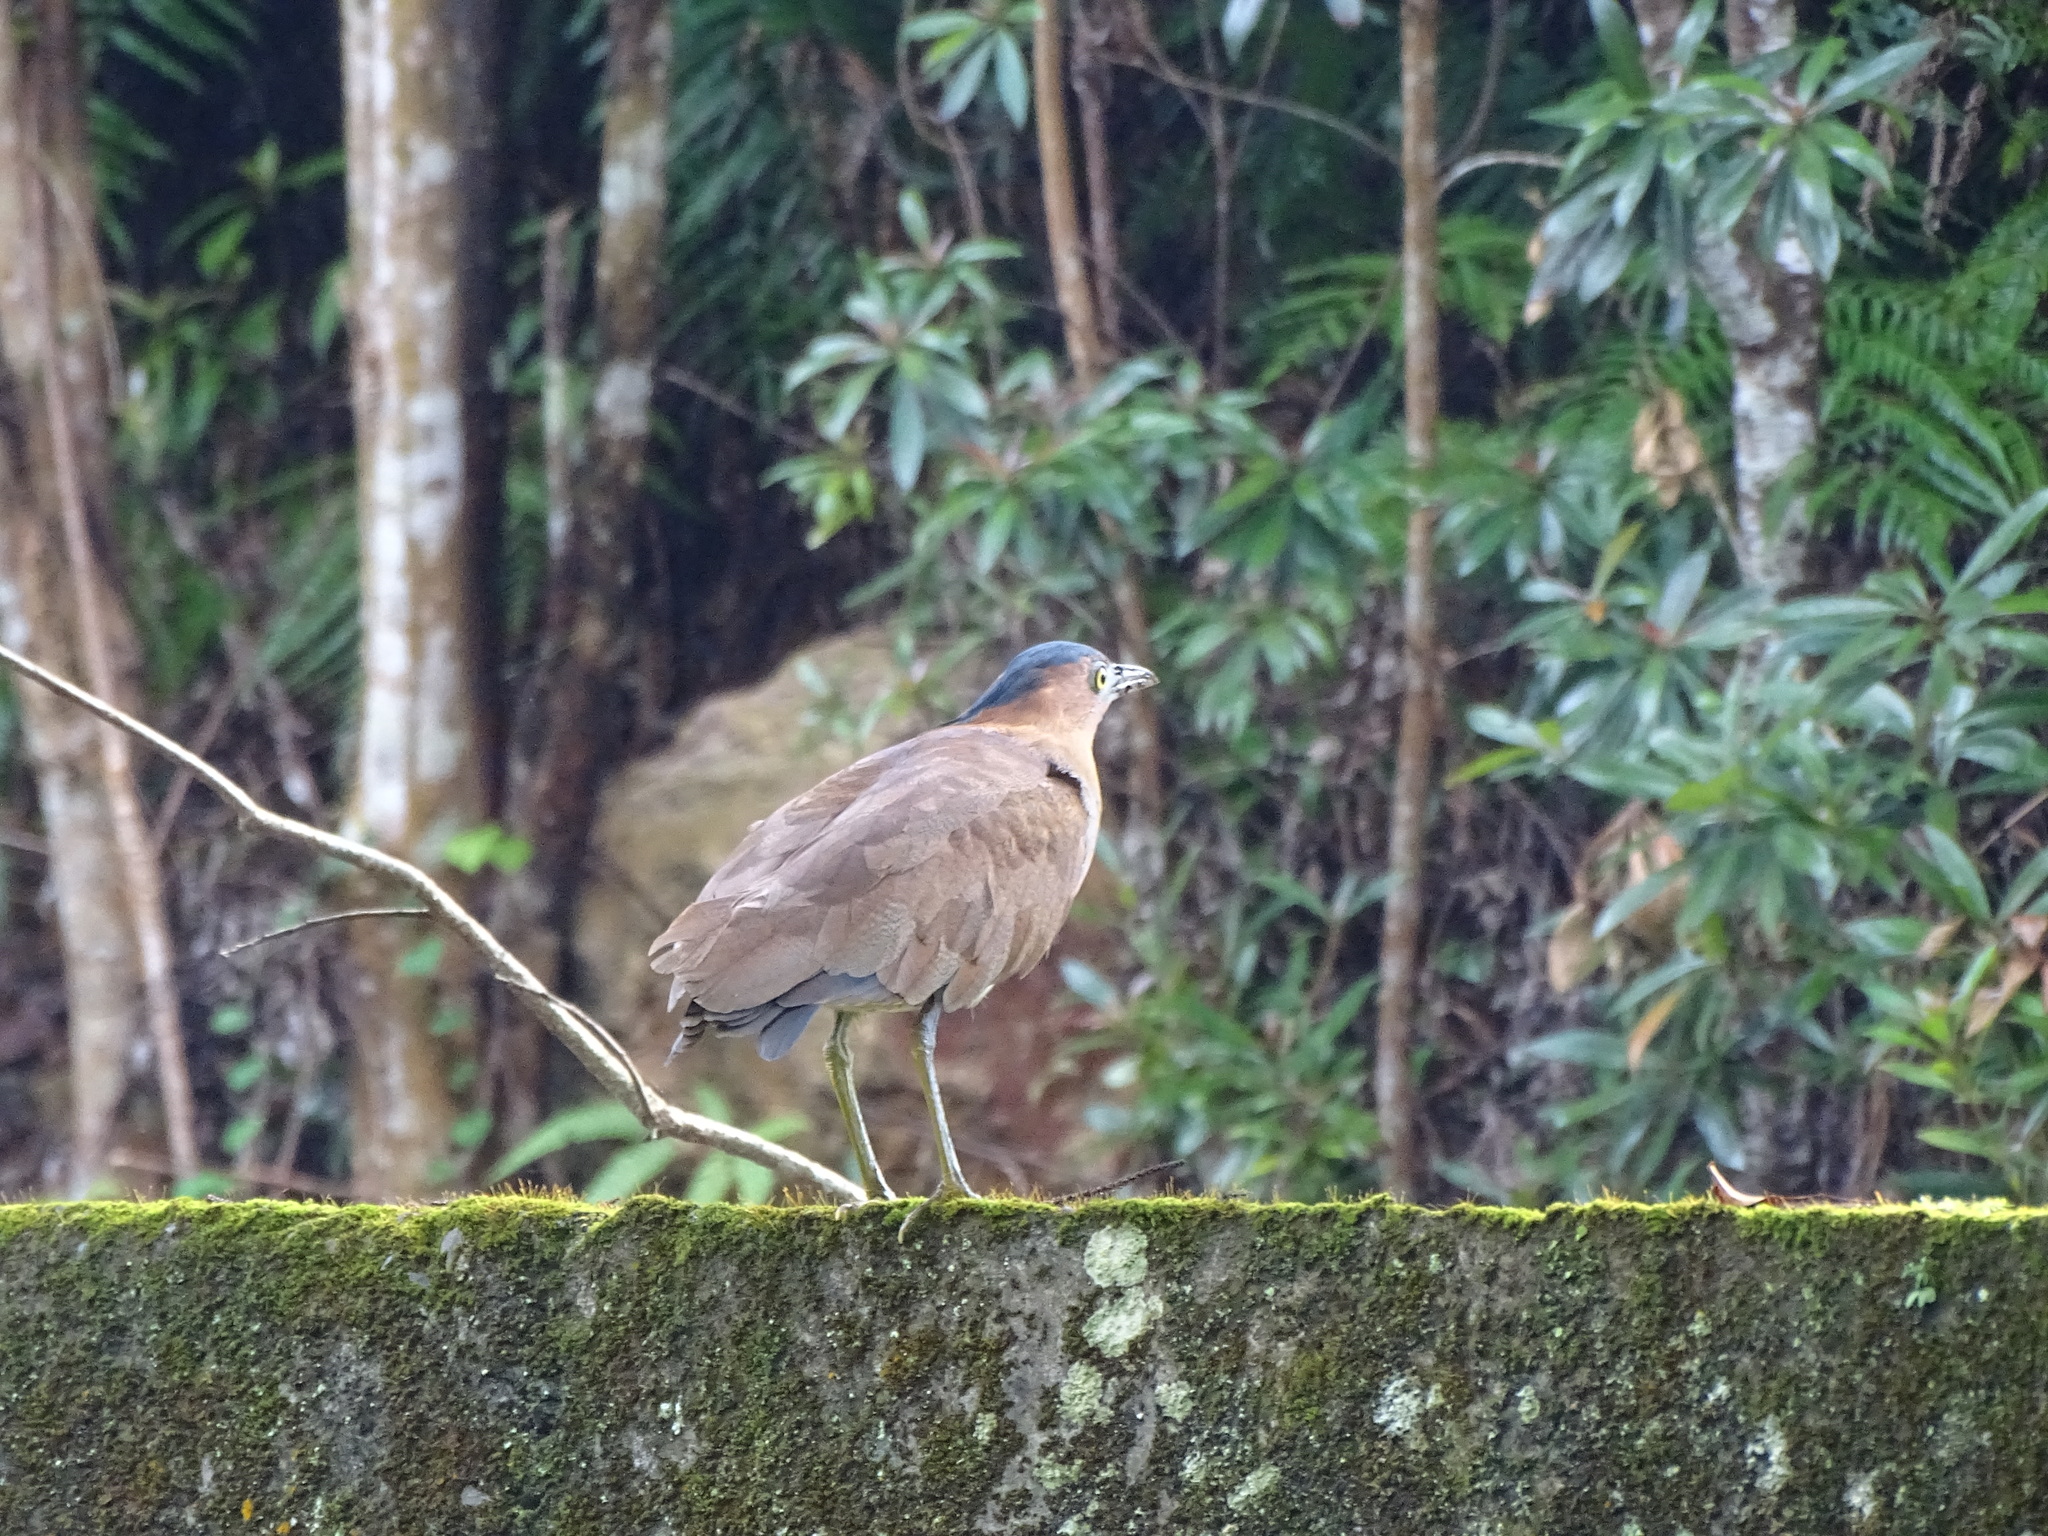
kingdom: Animalia
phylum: Chordata
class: Aves
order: Pelecaniformes
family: Ardeidae
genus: Gorsachius
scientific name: Gorsachius melanolophus
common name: Malayan night heron
